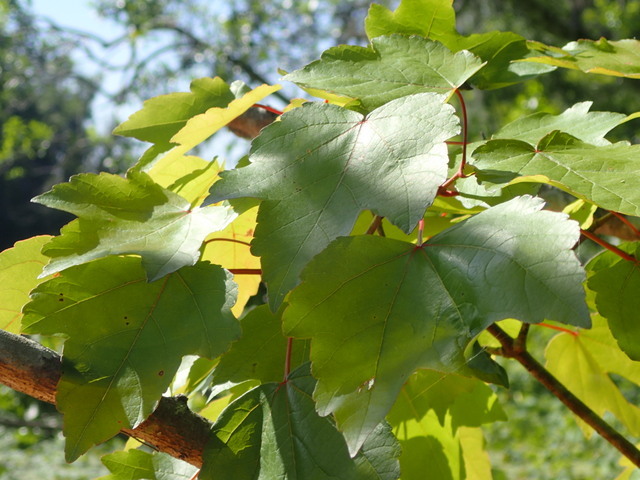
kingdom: Plantae
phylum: Tracheophyta
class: Magnoliopsida
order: Sapindales
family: Sapindaceae
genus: Acer
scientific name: Acer rubrum
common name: Red maple
